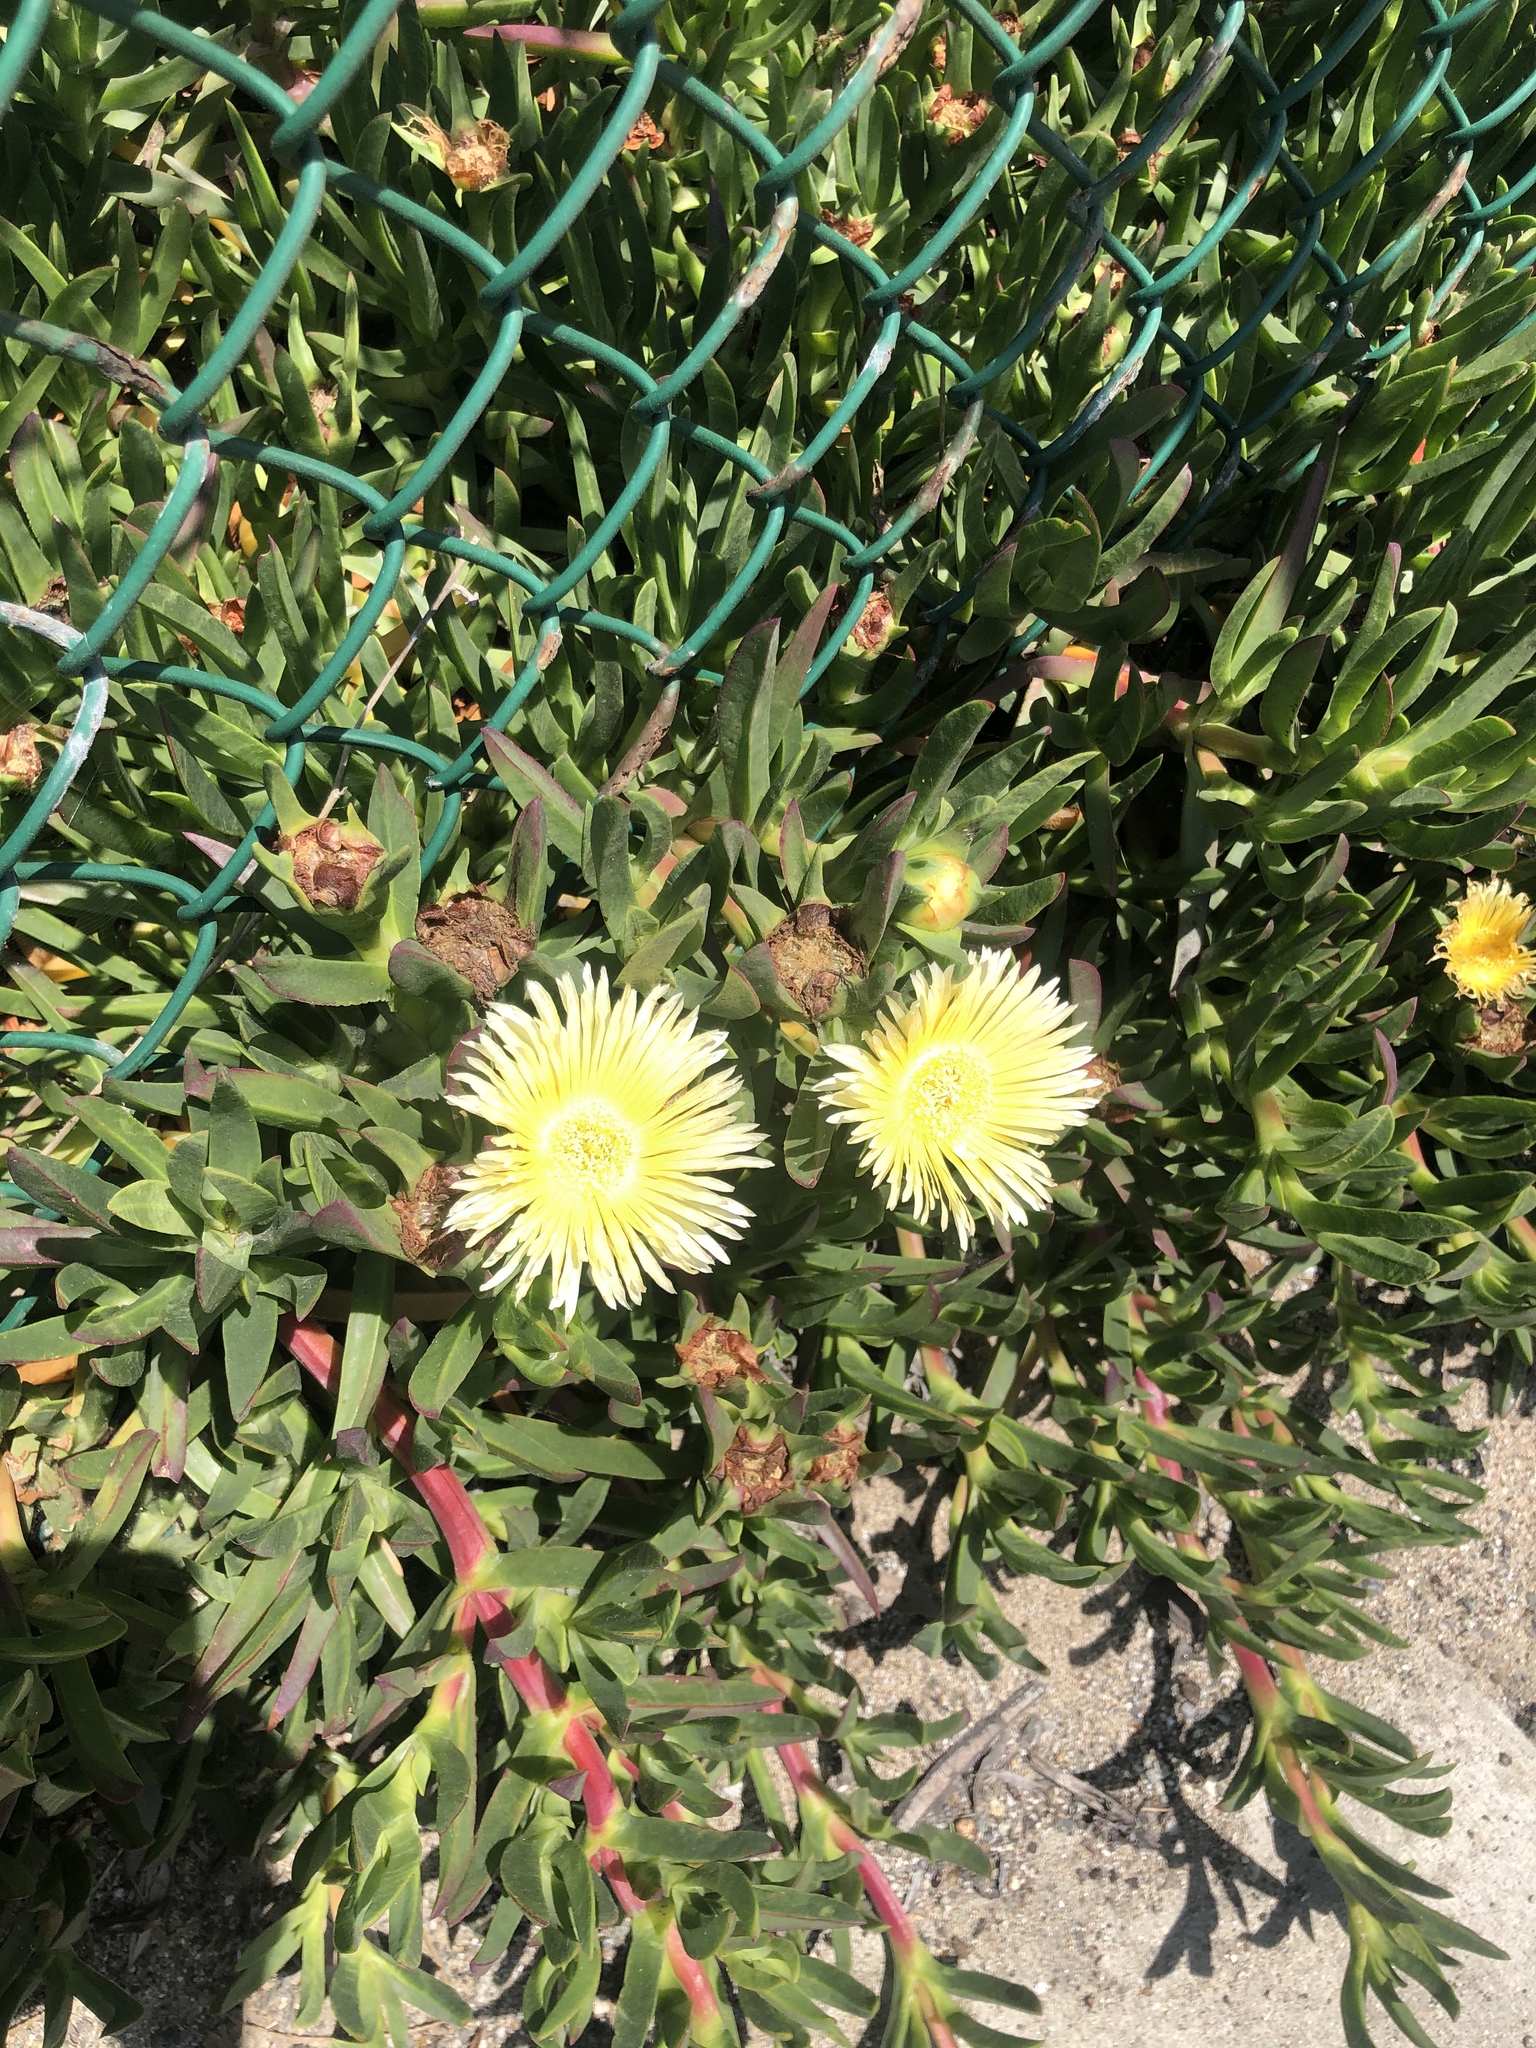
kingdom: Plantae
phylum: Tracheophyta
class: Magnoliopsida
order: Caryophyllales
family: Aizoaceae
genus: Carpobrotus
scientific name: Carpobrotus edulis
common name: Hottentot-fig
